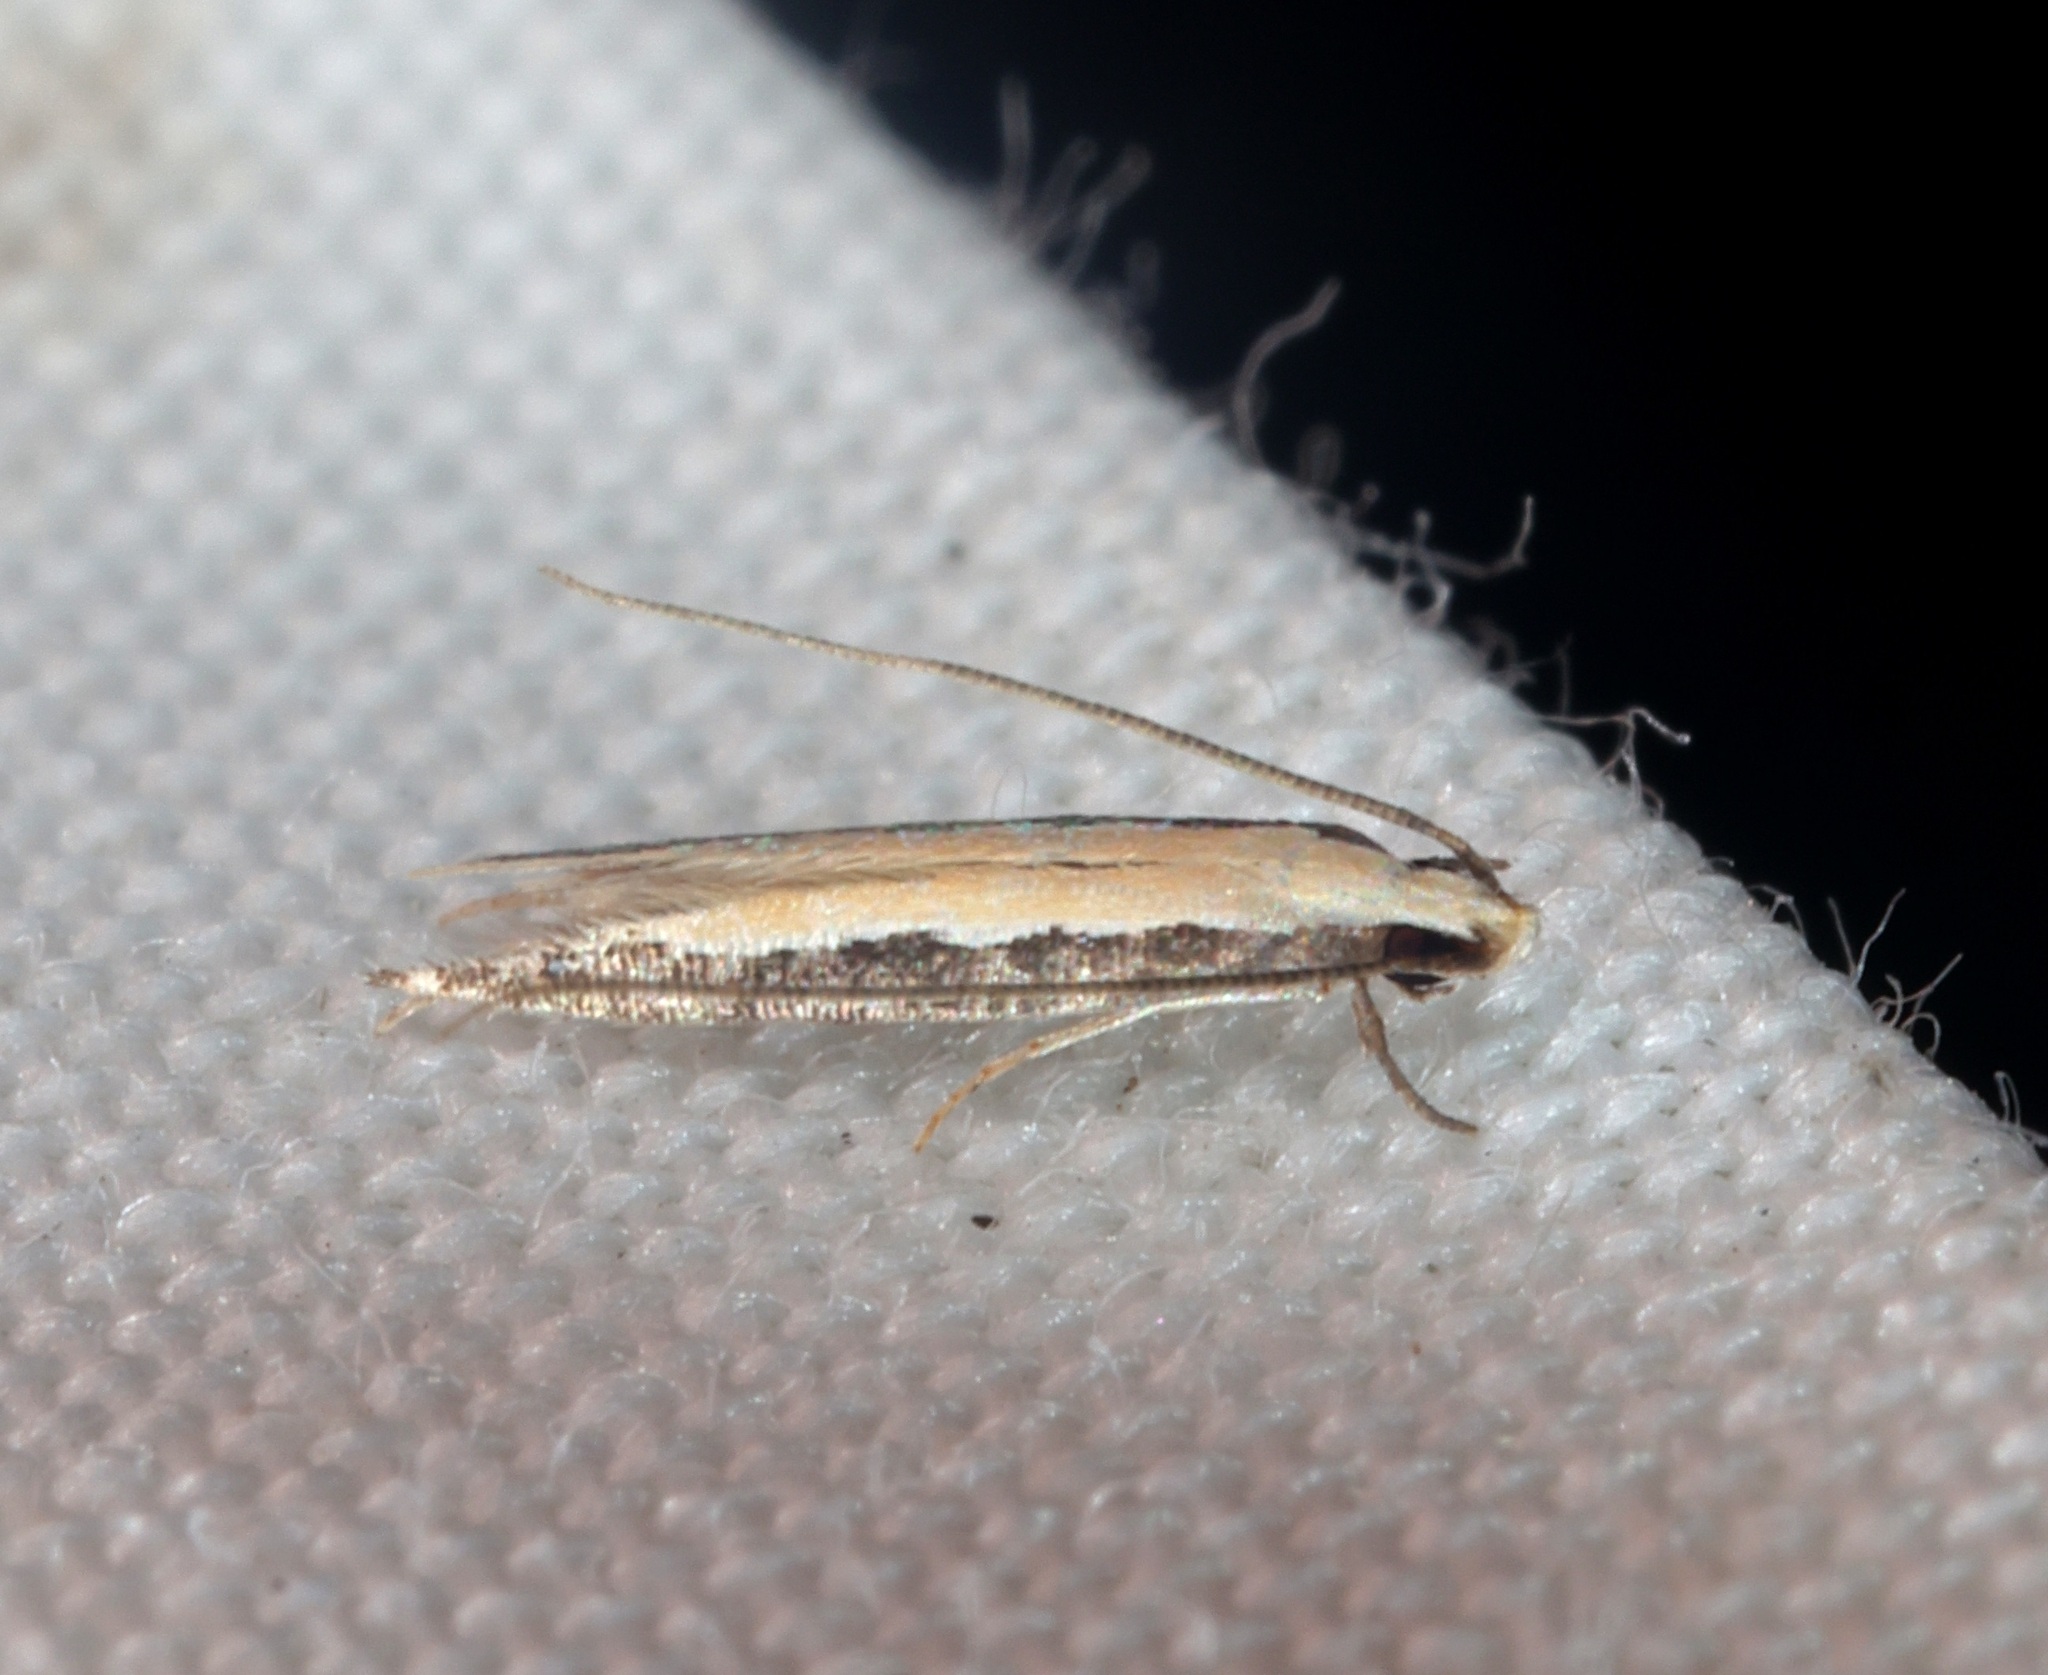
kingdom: Animalia
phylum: Arthropoda
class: Insecta
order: Lepidoptera
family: Cosmopterigidae
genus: Labdia
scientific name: Labdia oxychlora
